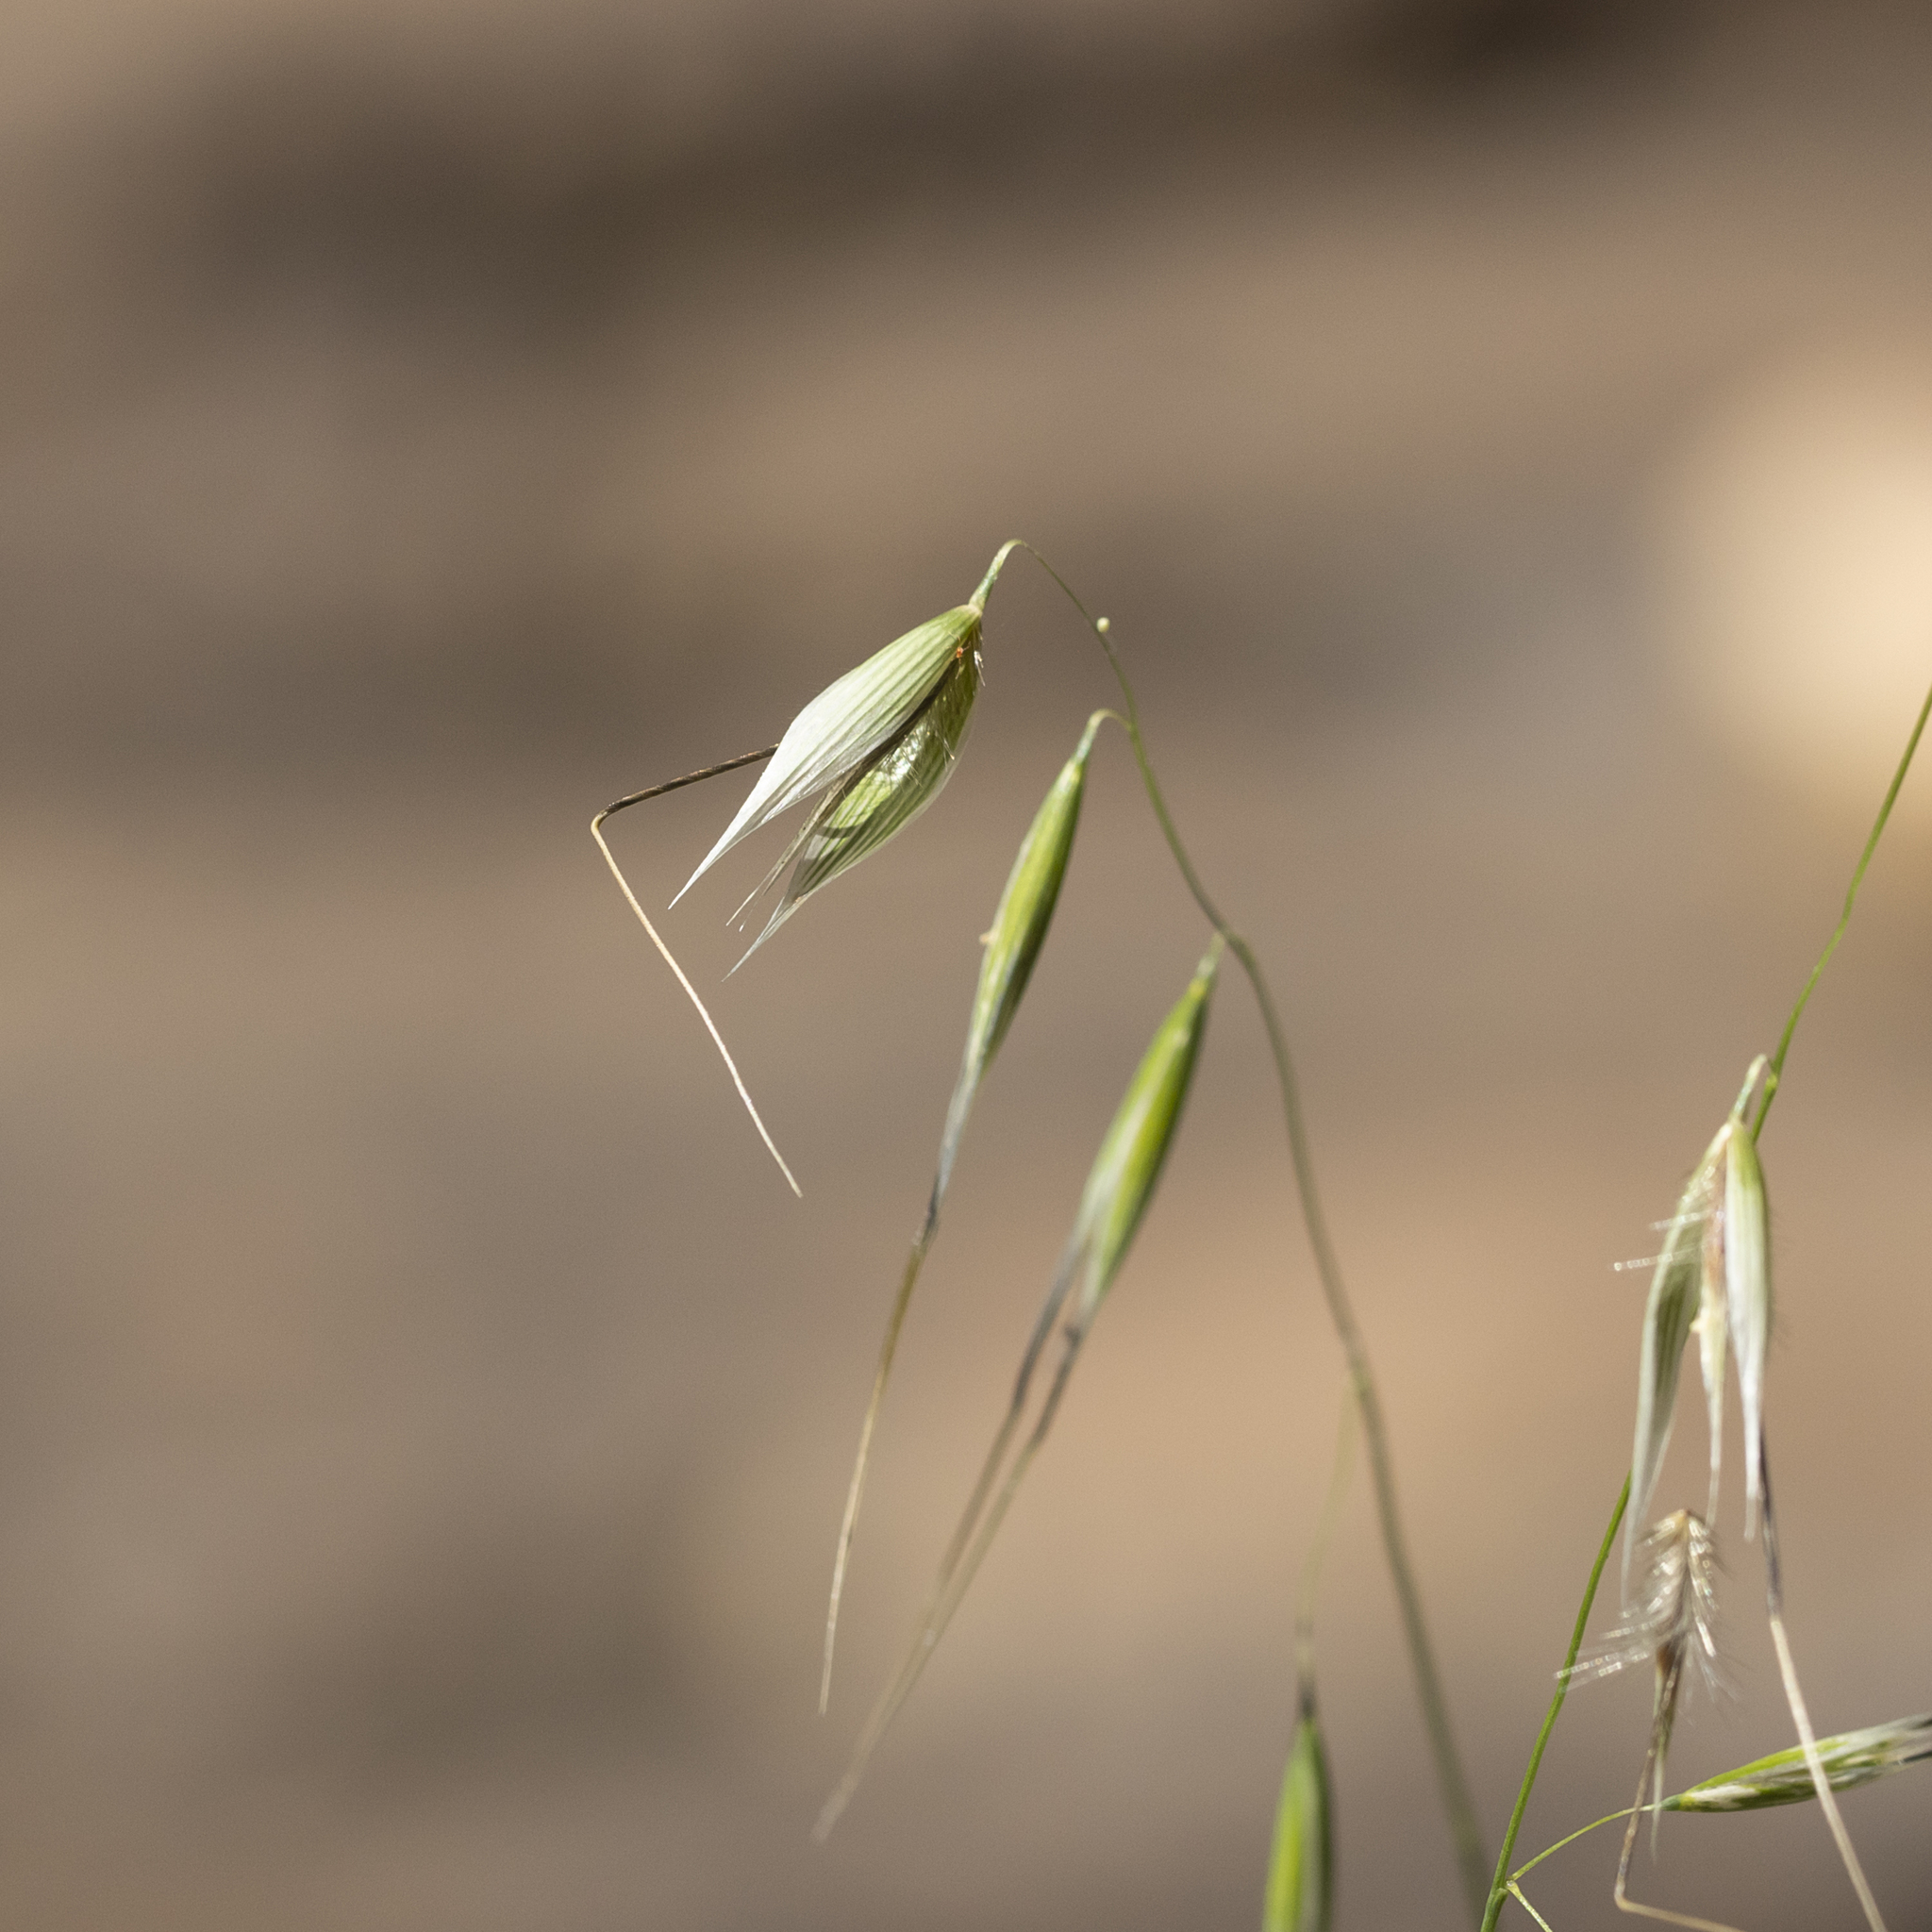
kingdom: Plantae
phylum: Tracheophyta
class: Liliopsida
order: Poales
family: Poaceae
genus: Avena
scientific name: Avena barbata
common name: Slender oat
